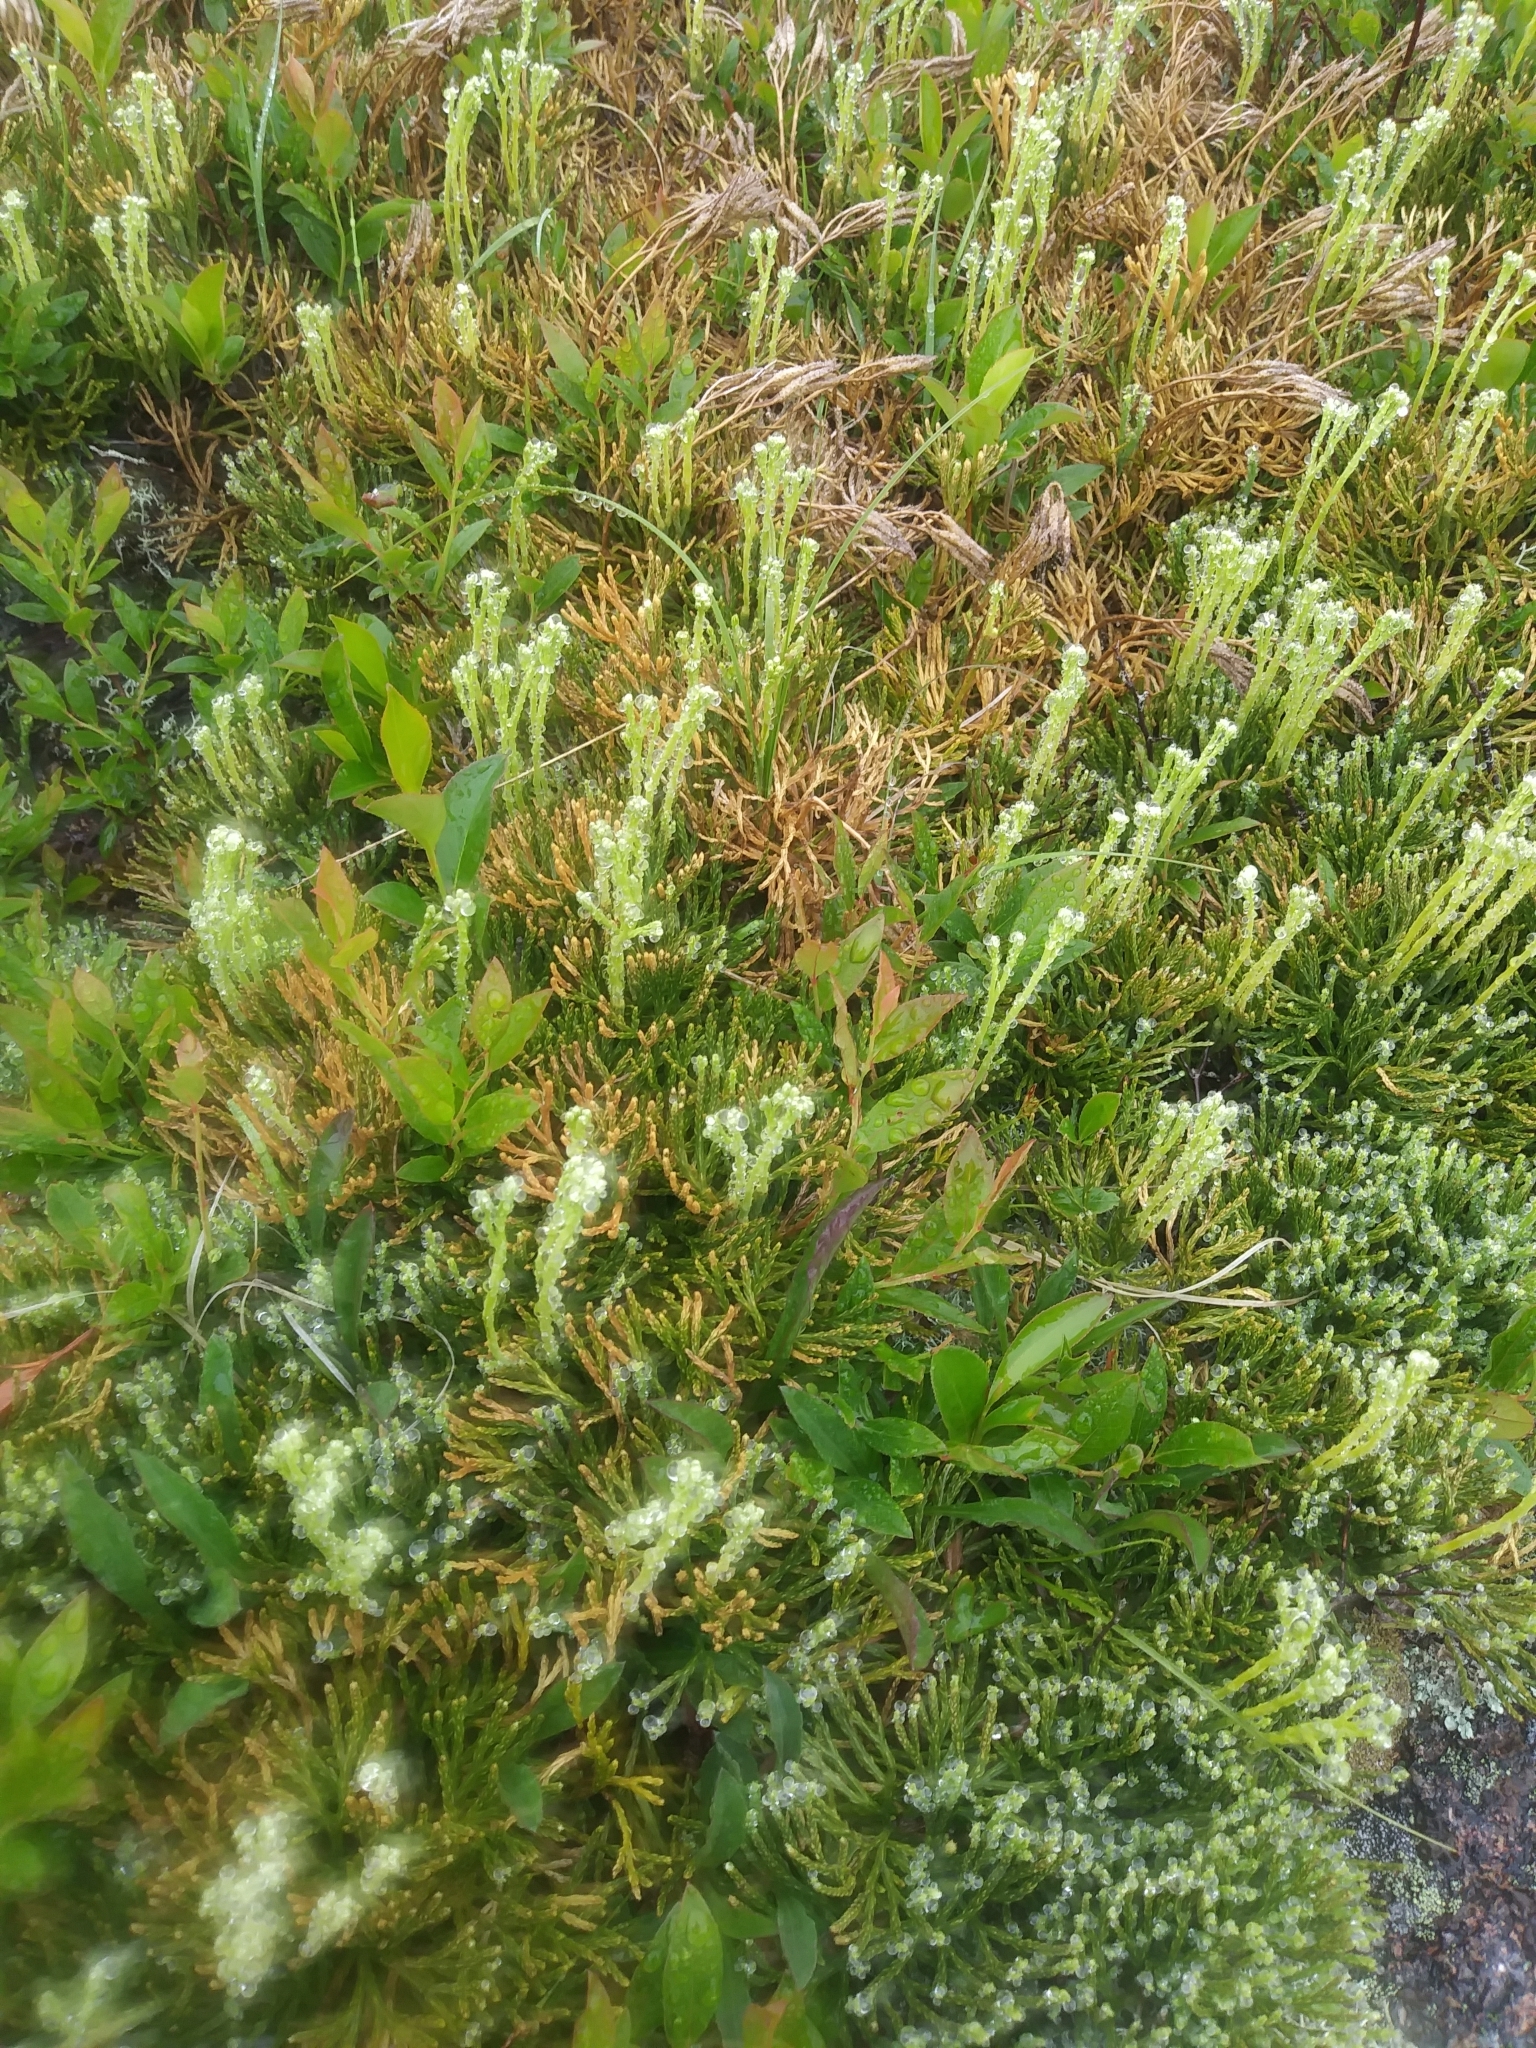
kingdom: Plantae
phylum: Tracheophyta
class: Lycopodiopsida
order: Lycopodiales
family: Lycopodiaceae
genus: Diphasiastrum
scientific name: Diphasiastrum tristachyum
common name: Blue ground-cedar
